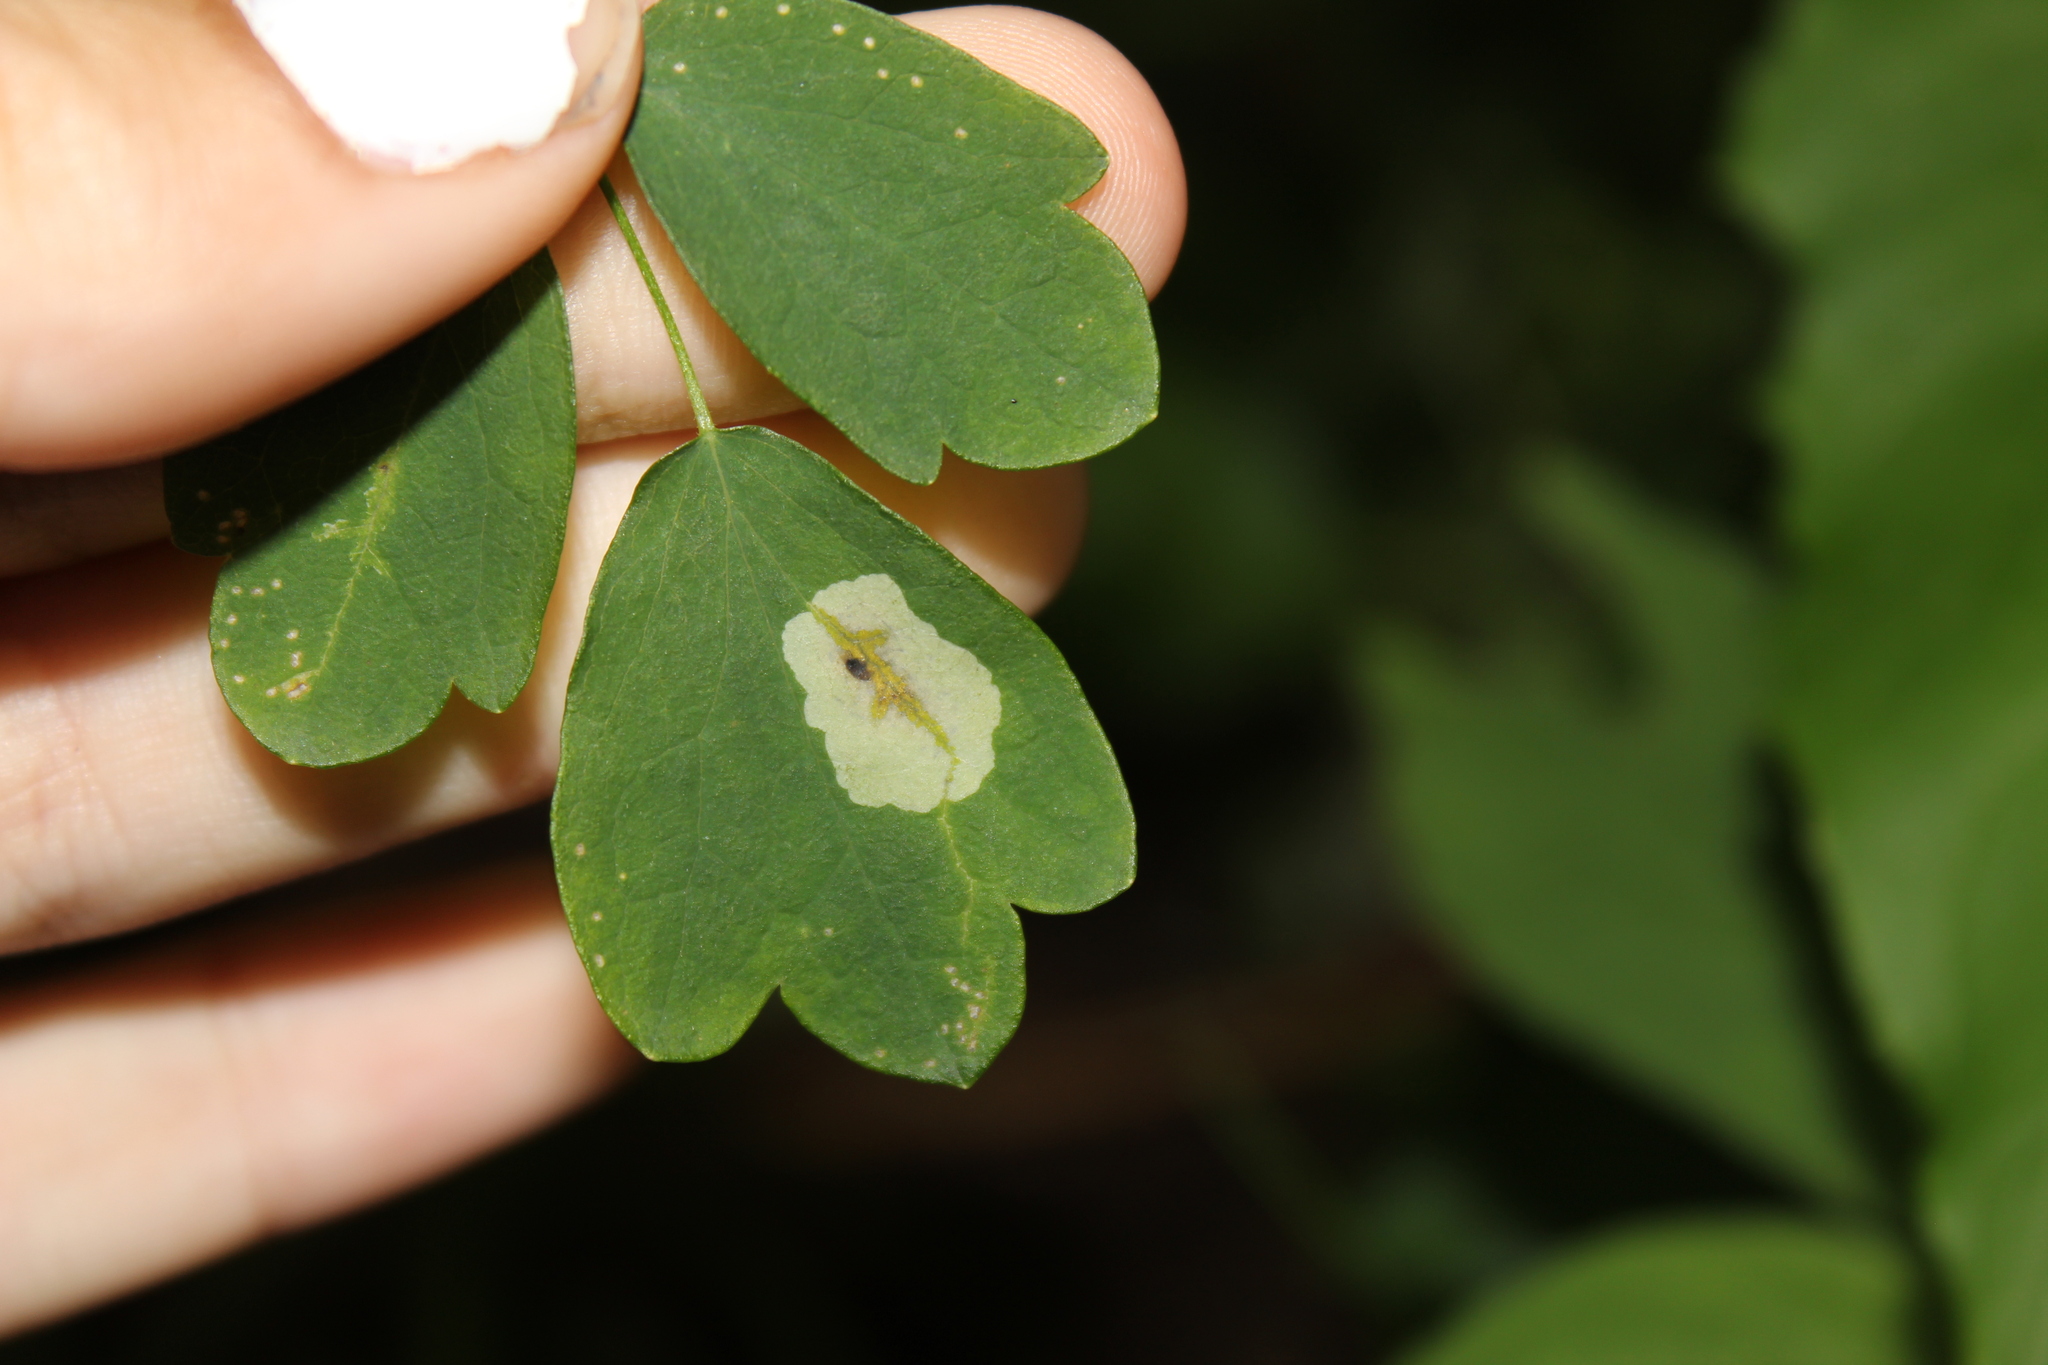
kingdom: Animalia
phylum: Arthropoda
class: Insecta
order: Diptera
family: Agromyzidae
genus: Phytomyza
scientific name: Phytomyza plumiseta
